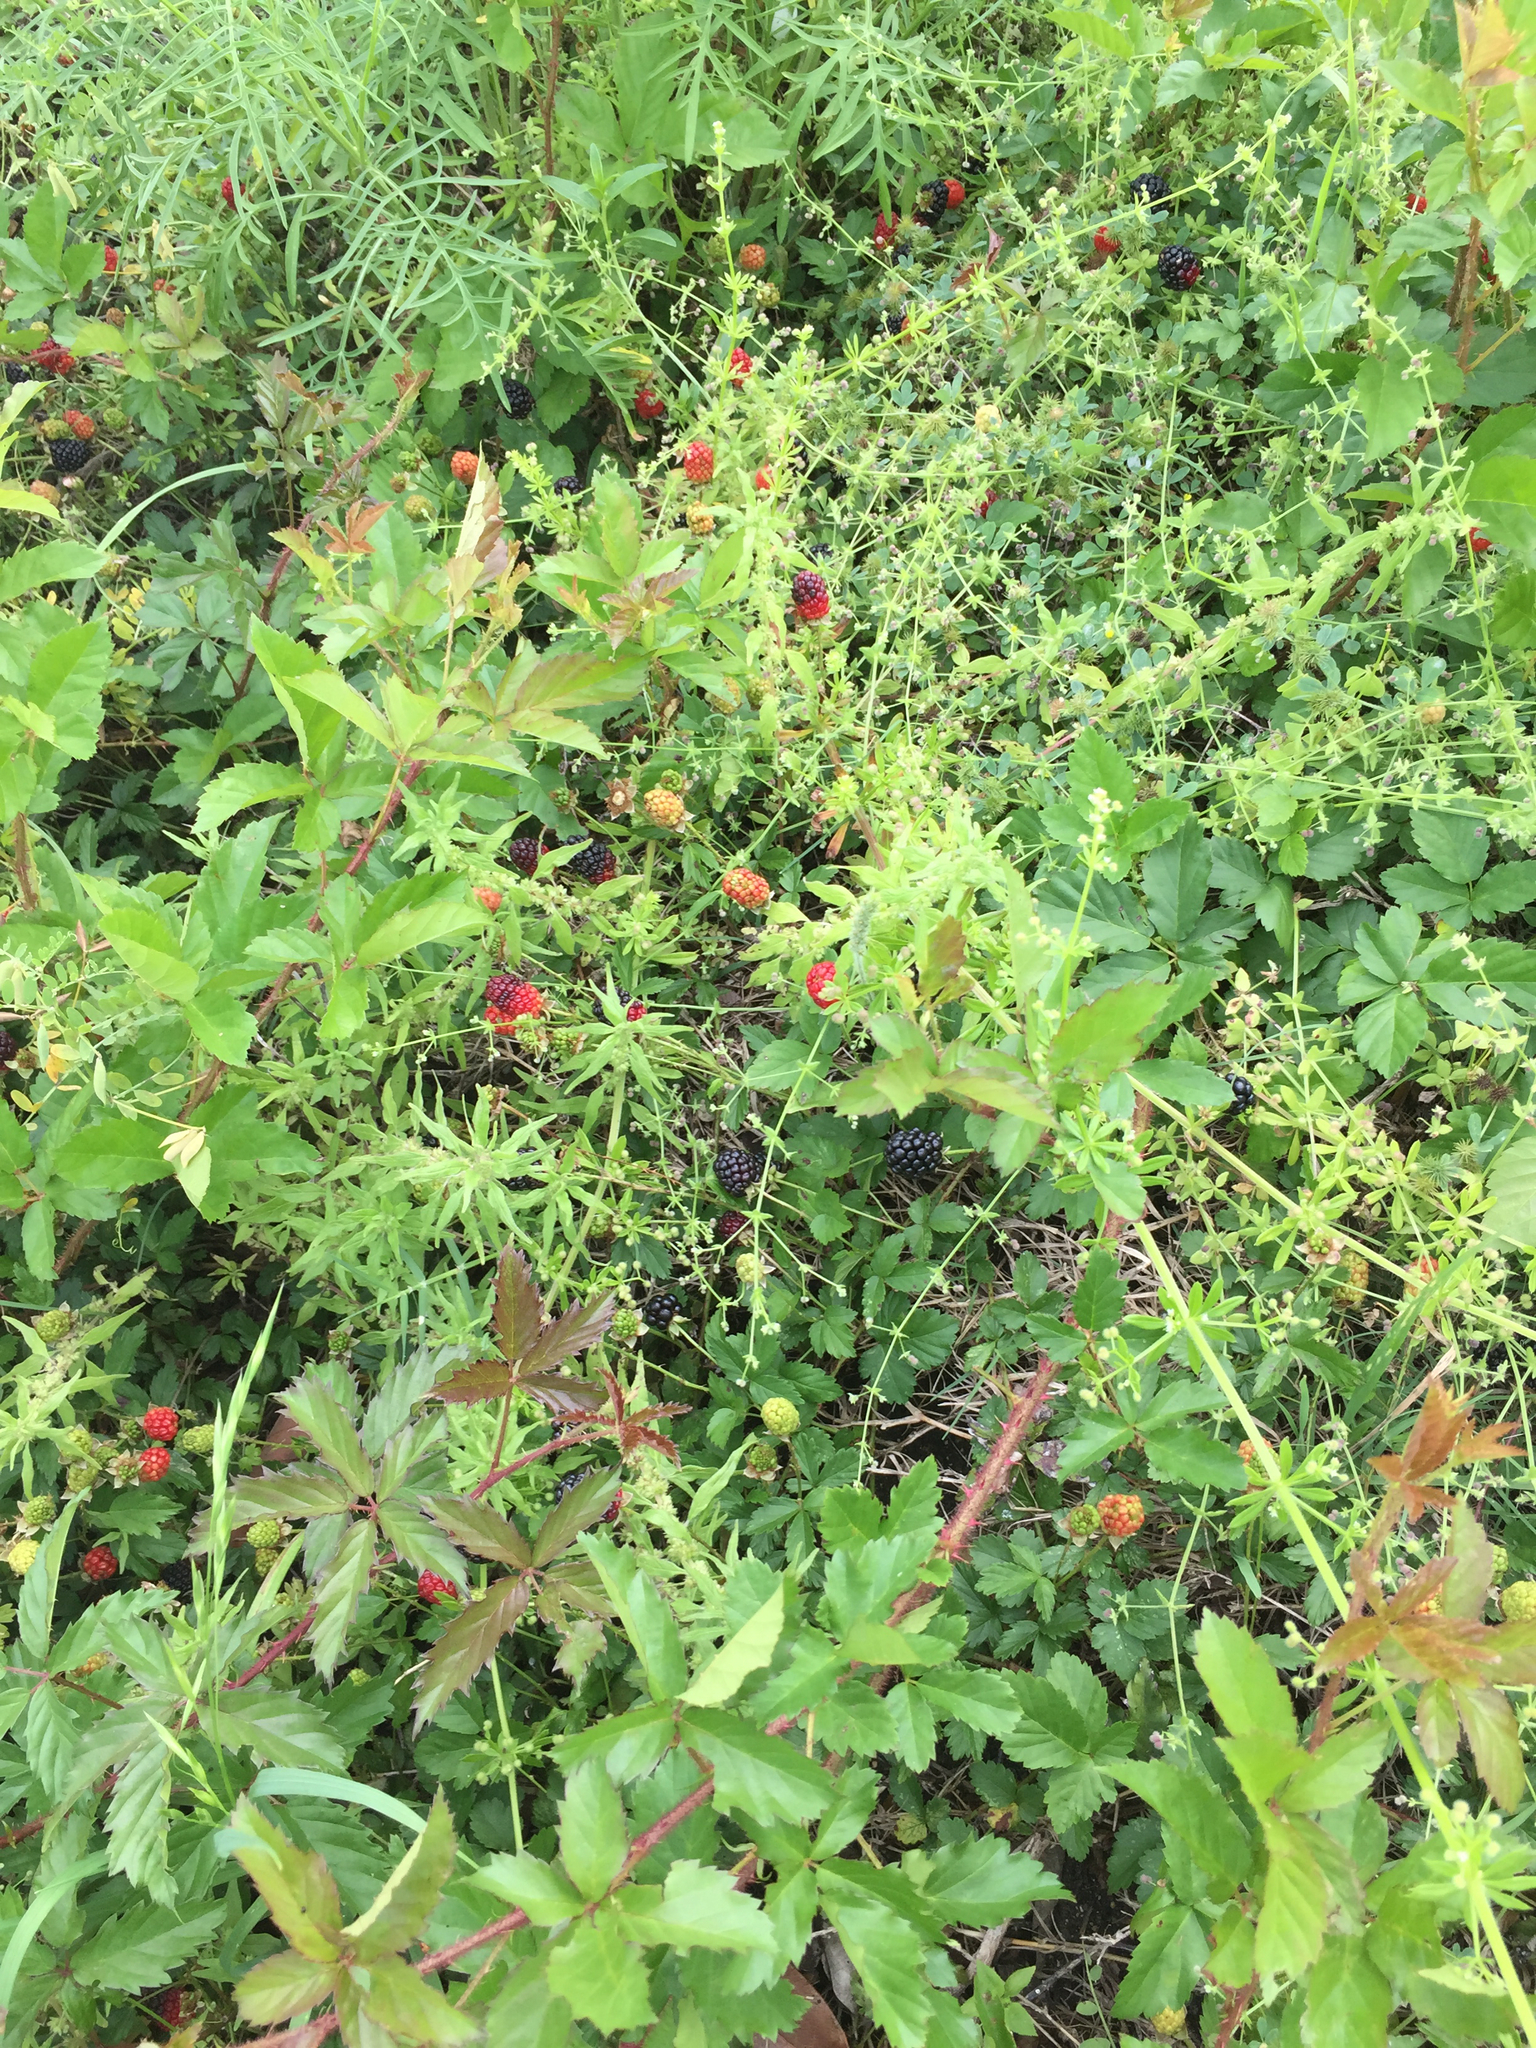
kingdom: Plantae
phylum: Tracheophyta
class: Magnoliopsida
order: Rosales
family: Rosaceae
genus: Rubus
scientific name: Rubus trivialis
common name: Southern dewberry
